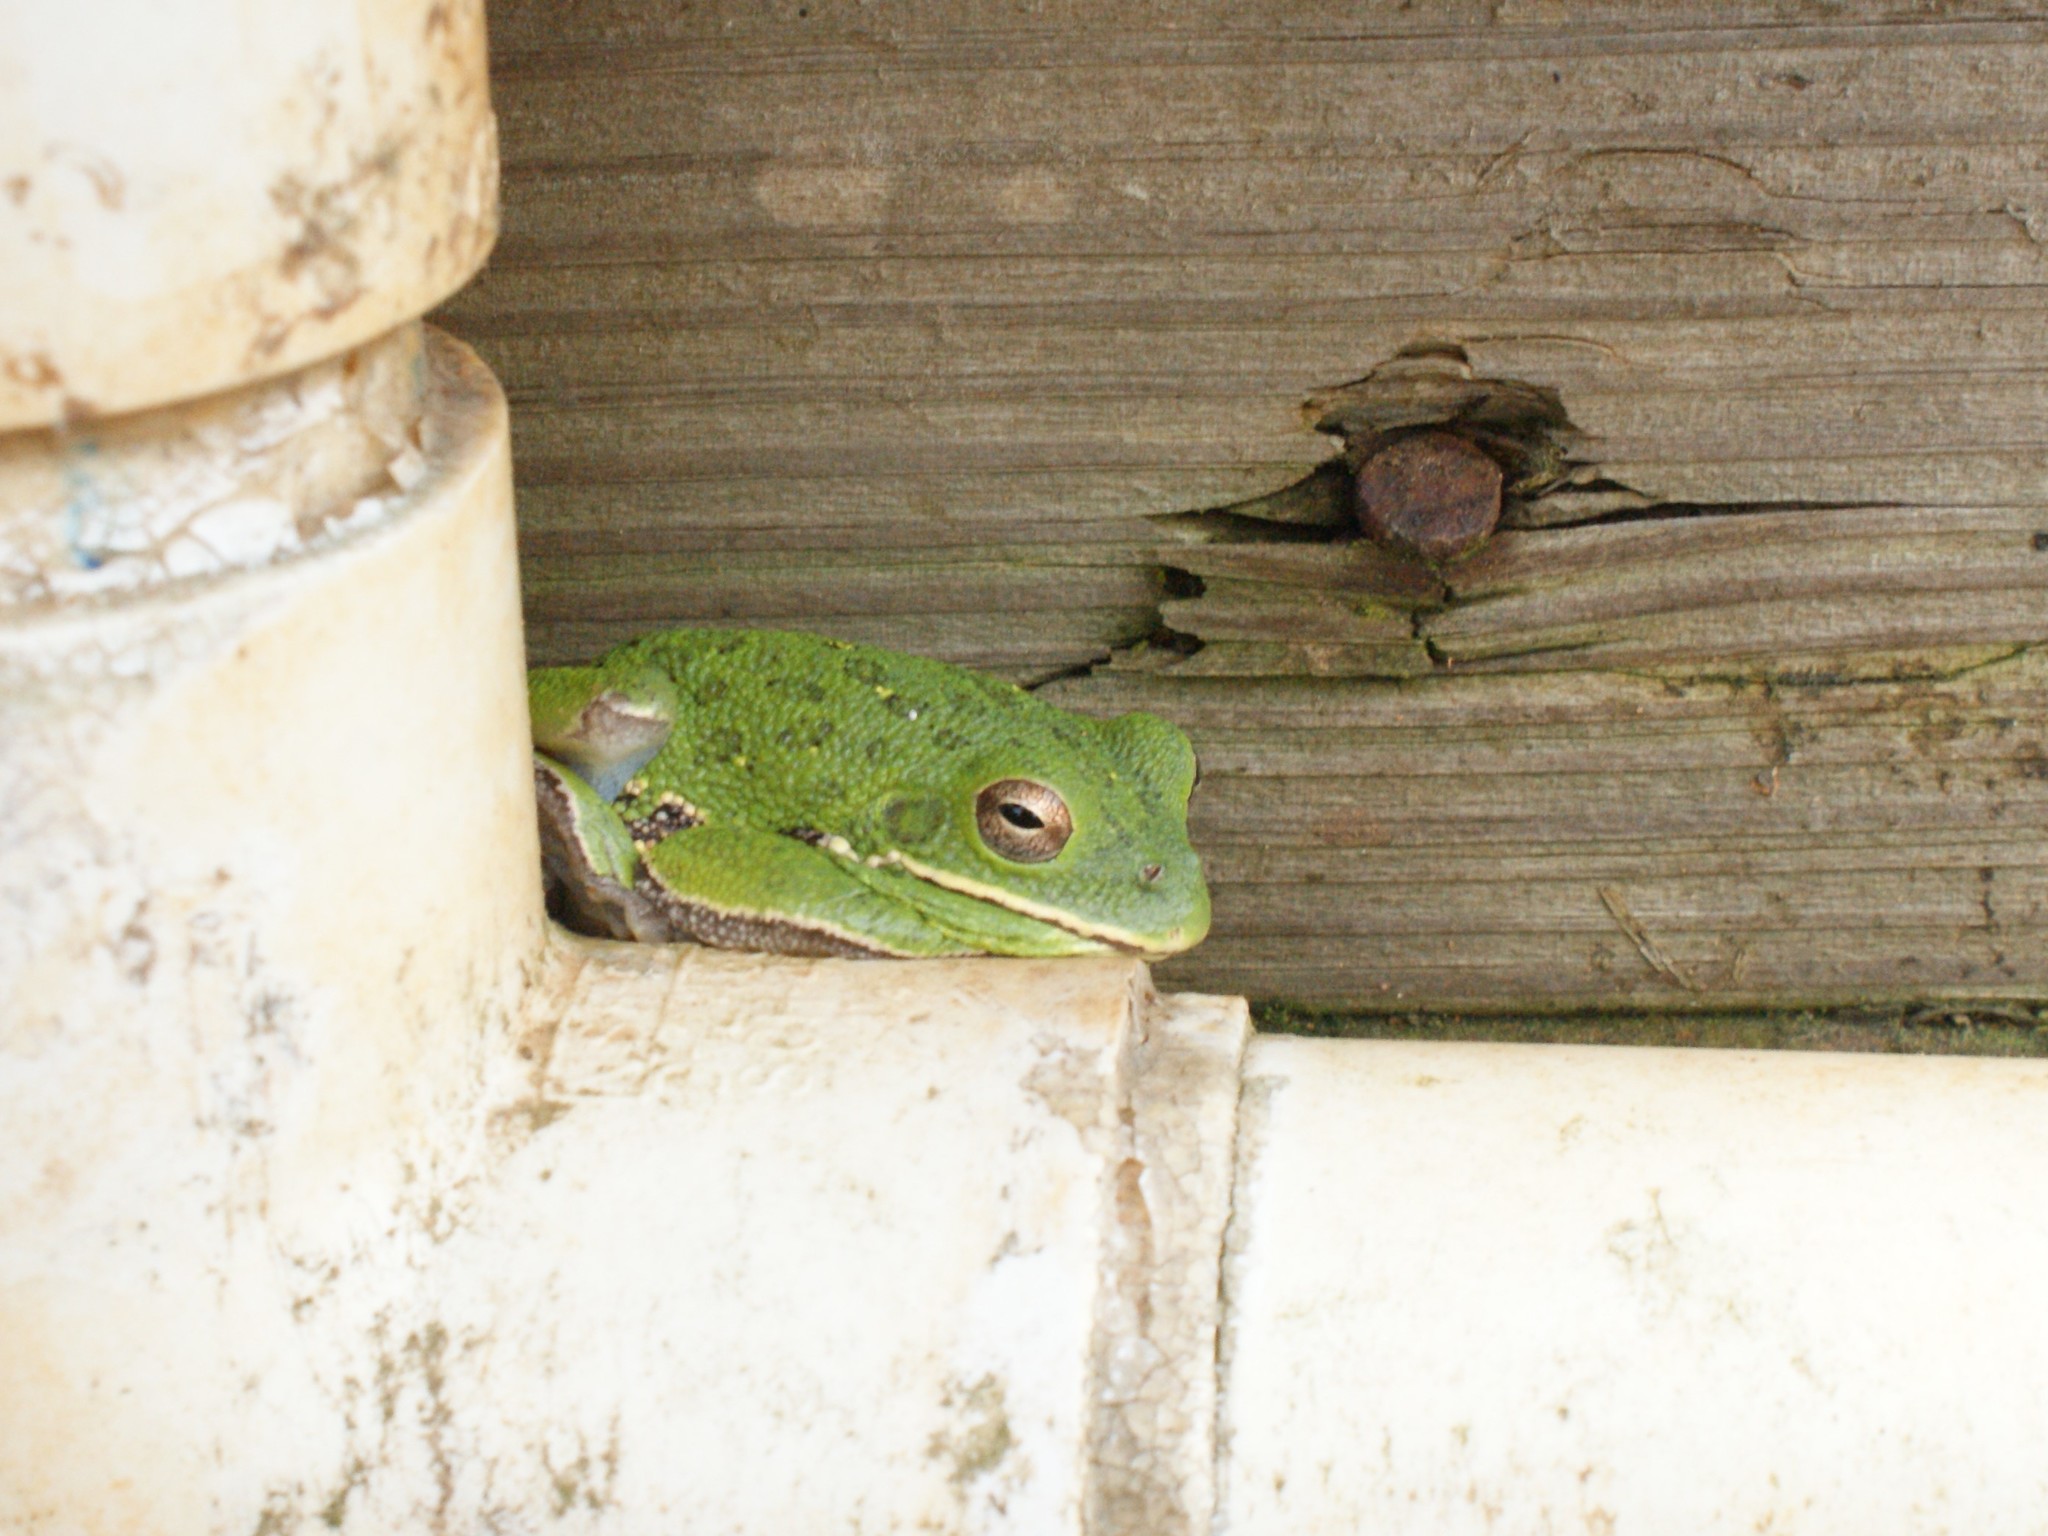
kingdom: Animalia
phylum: Chordata
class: Amphibia
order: Anura
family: Hylidae
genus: Dryophytes
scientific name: Dryophytes gratiosus
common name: Barking treefrog
